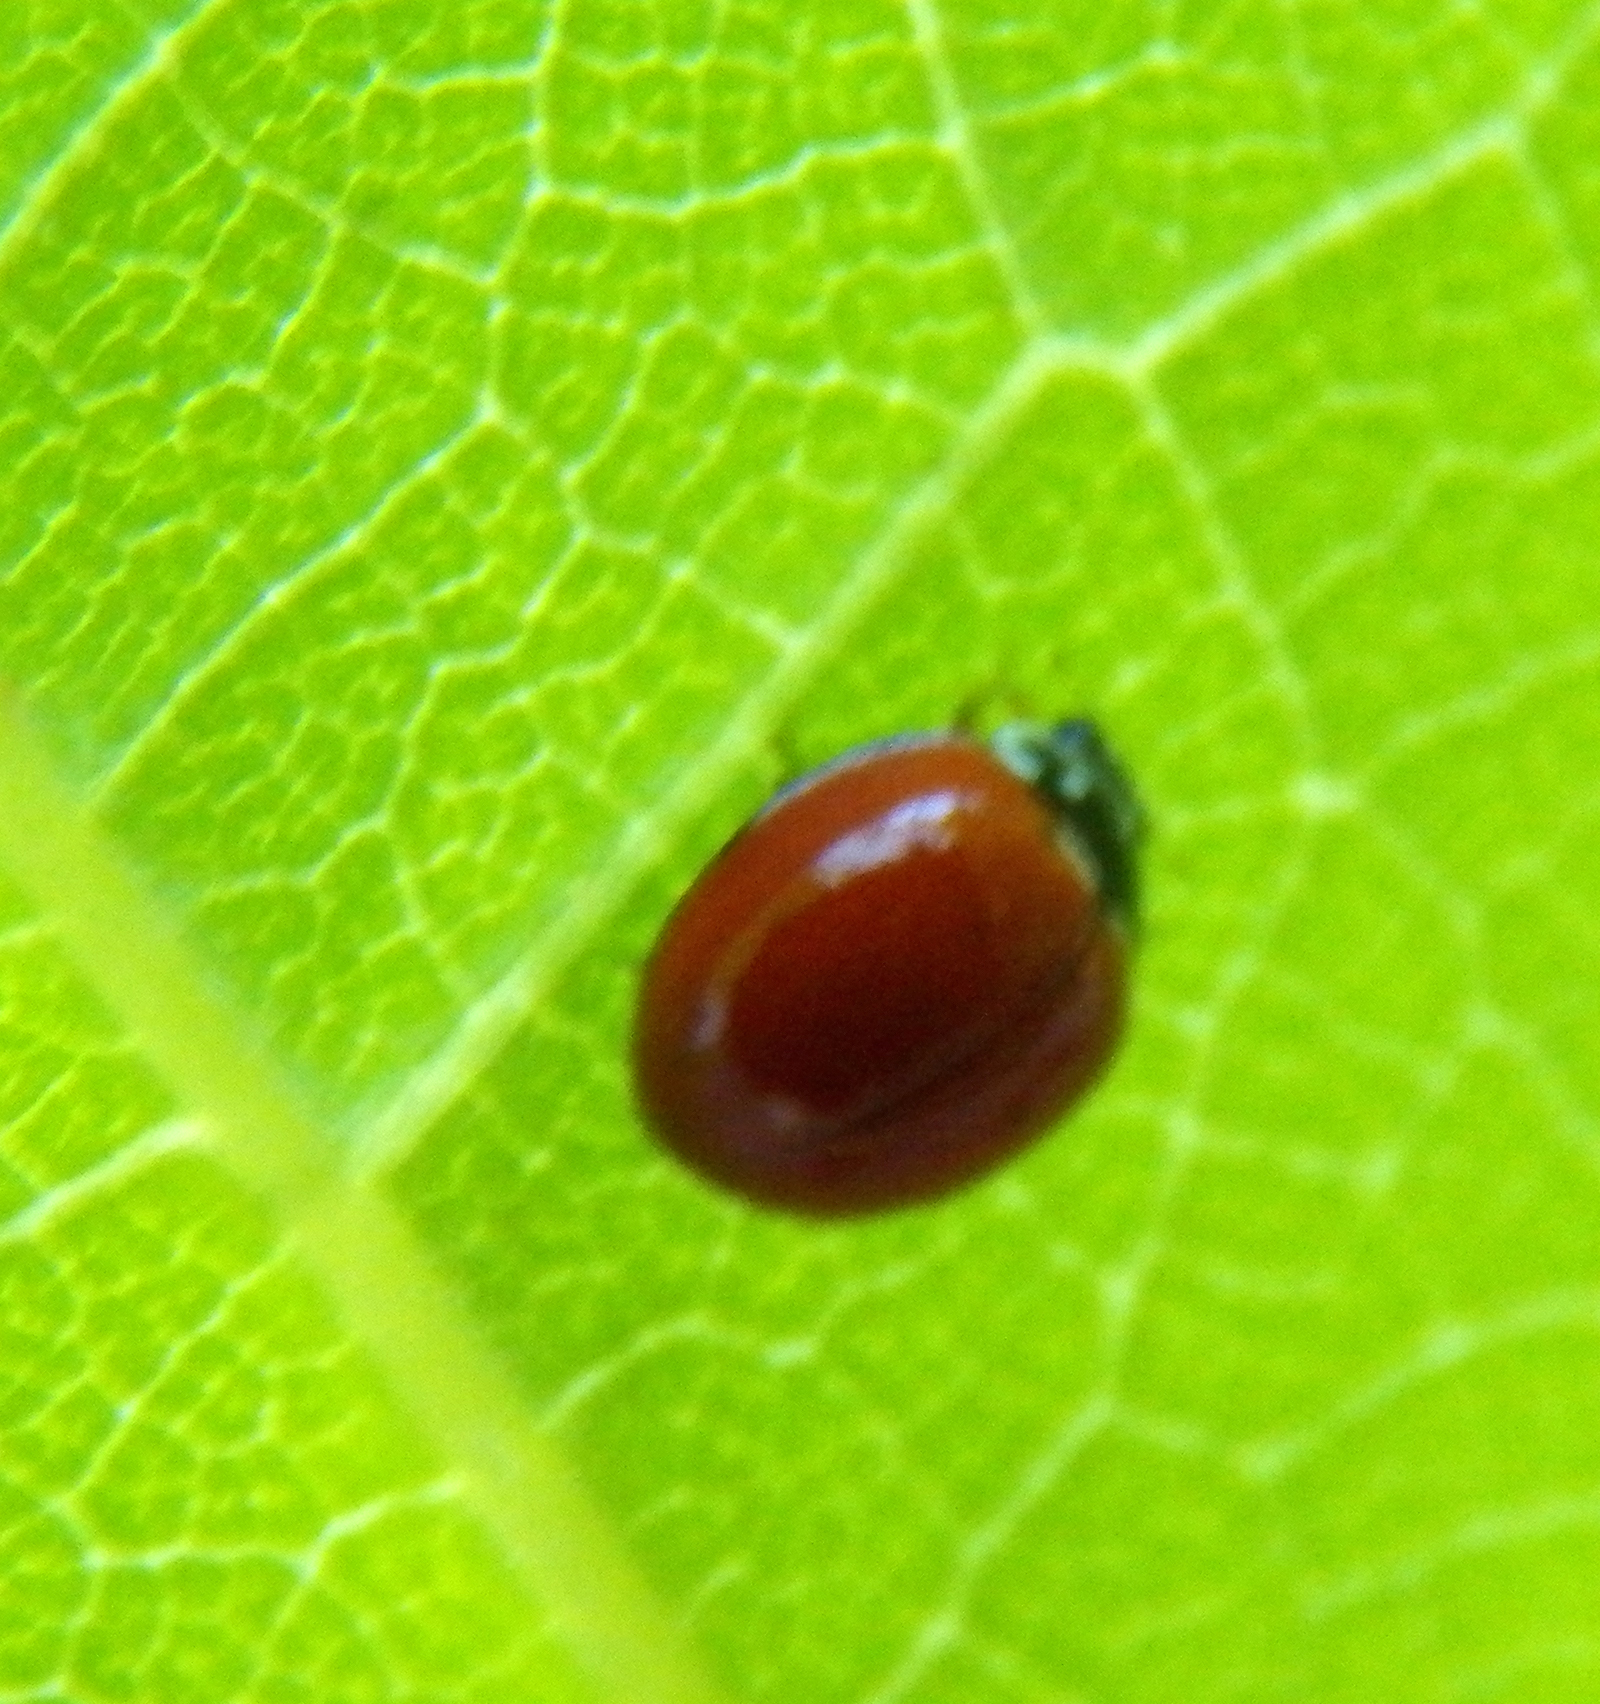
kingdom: Animalia
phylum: Arthropoda
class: Insecta
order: Coleoptera
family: Coccinellidae
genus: Cycloneda
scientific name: Cycloneda sanguinea
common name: Ladybird beetle
